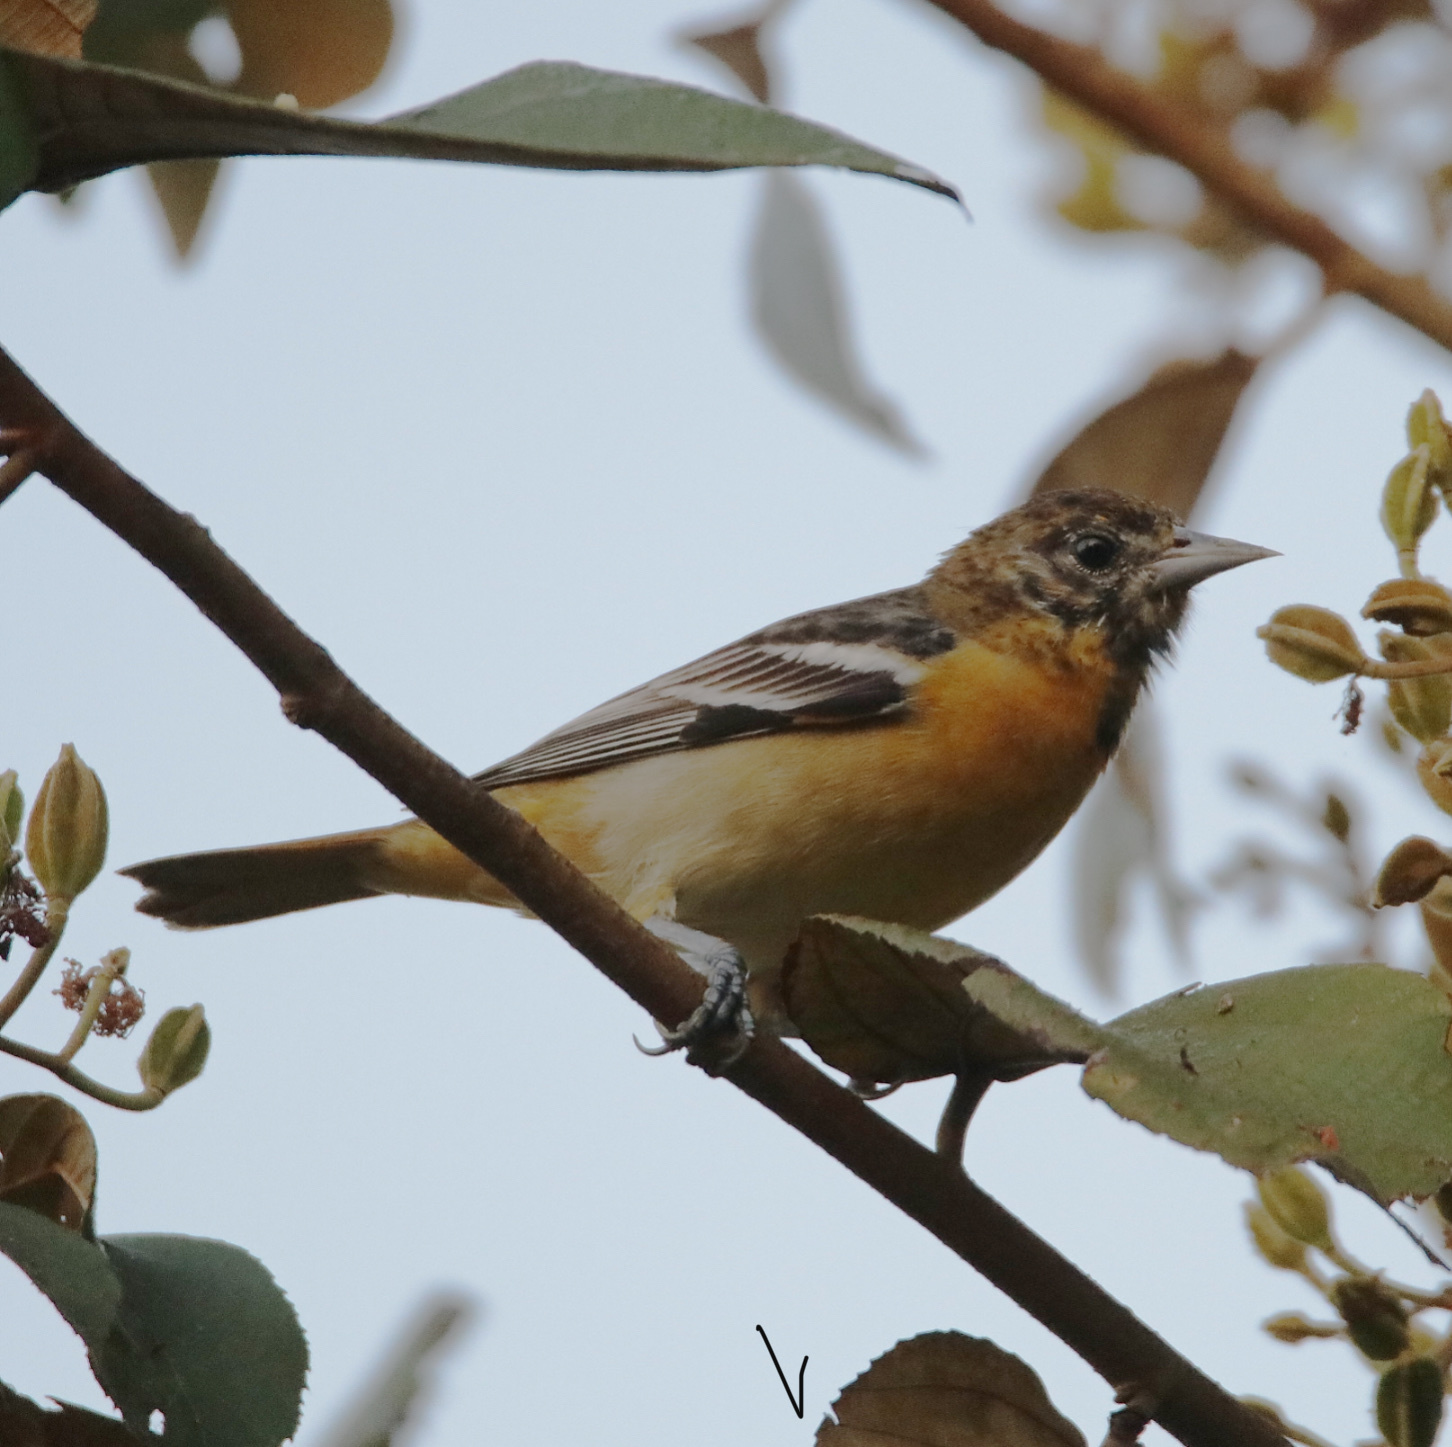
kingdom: Animalia
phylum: Chordata
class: Aves
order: Passeriformes
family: Icteridae
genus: Icterus
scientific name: Icterus galbula
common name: Baltimore oriole
